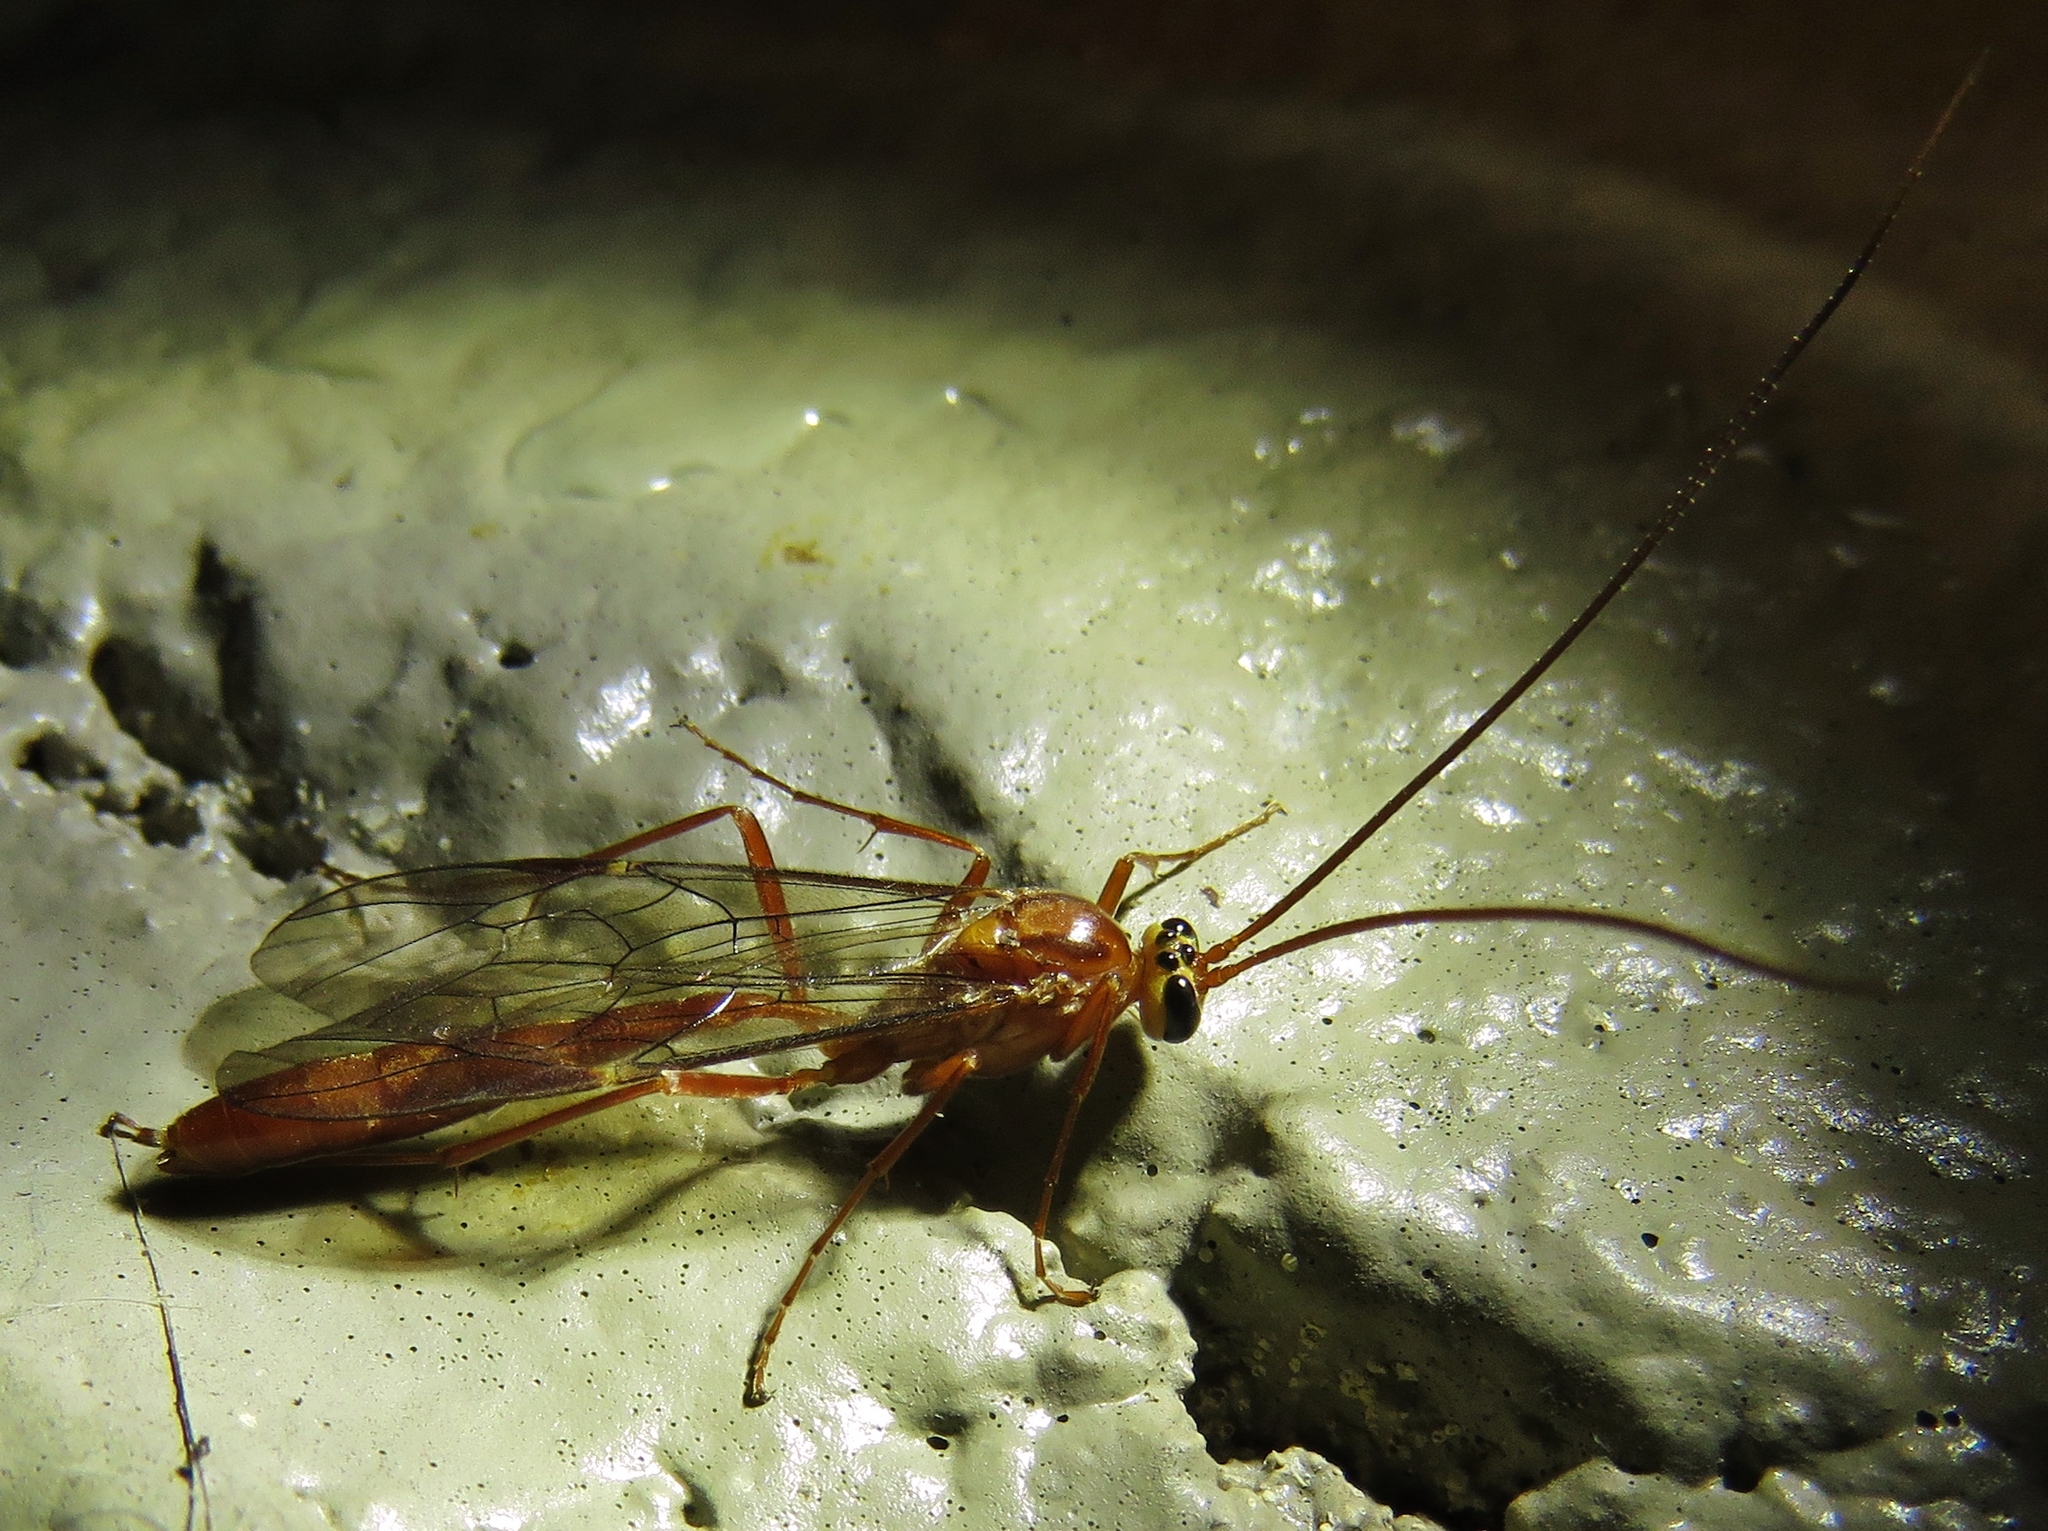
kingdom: Animalia
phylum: Arthropoda
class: Insecta
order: Hymenoptera
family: Ichneumonidae
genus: Ophion
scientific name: Ophion
